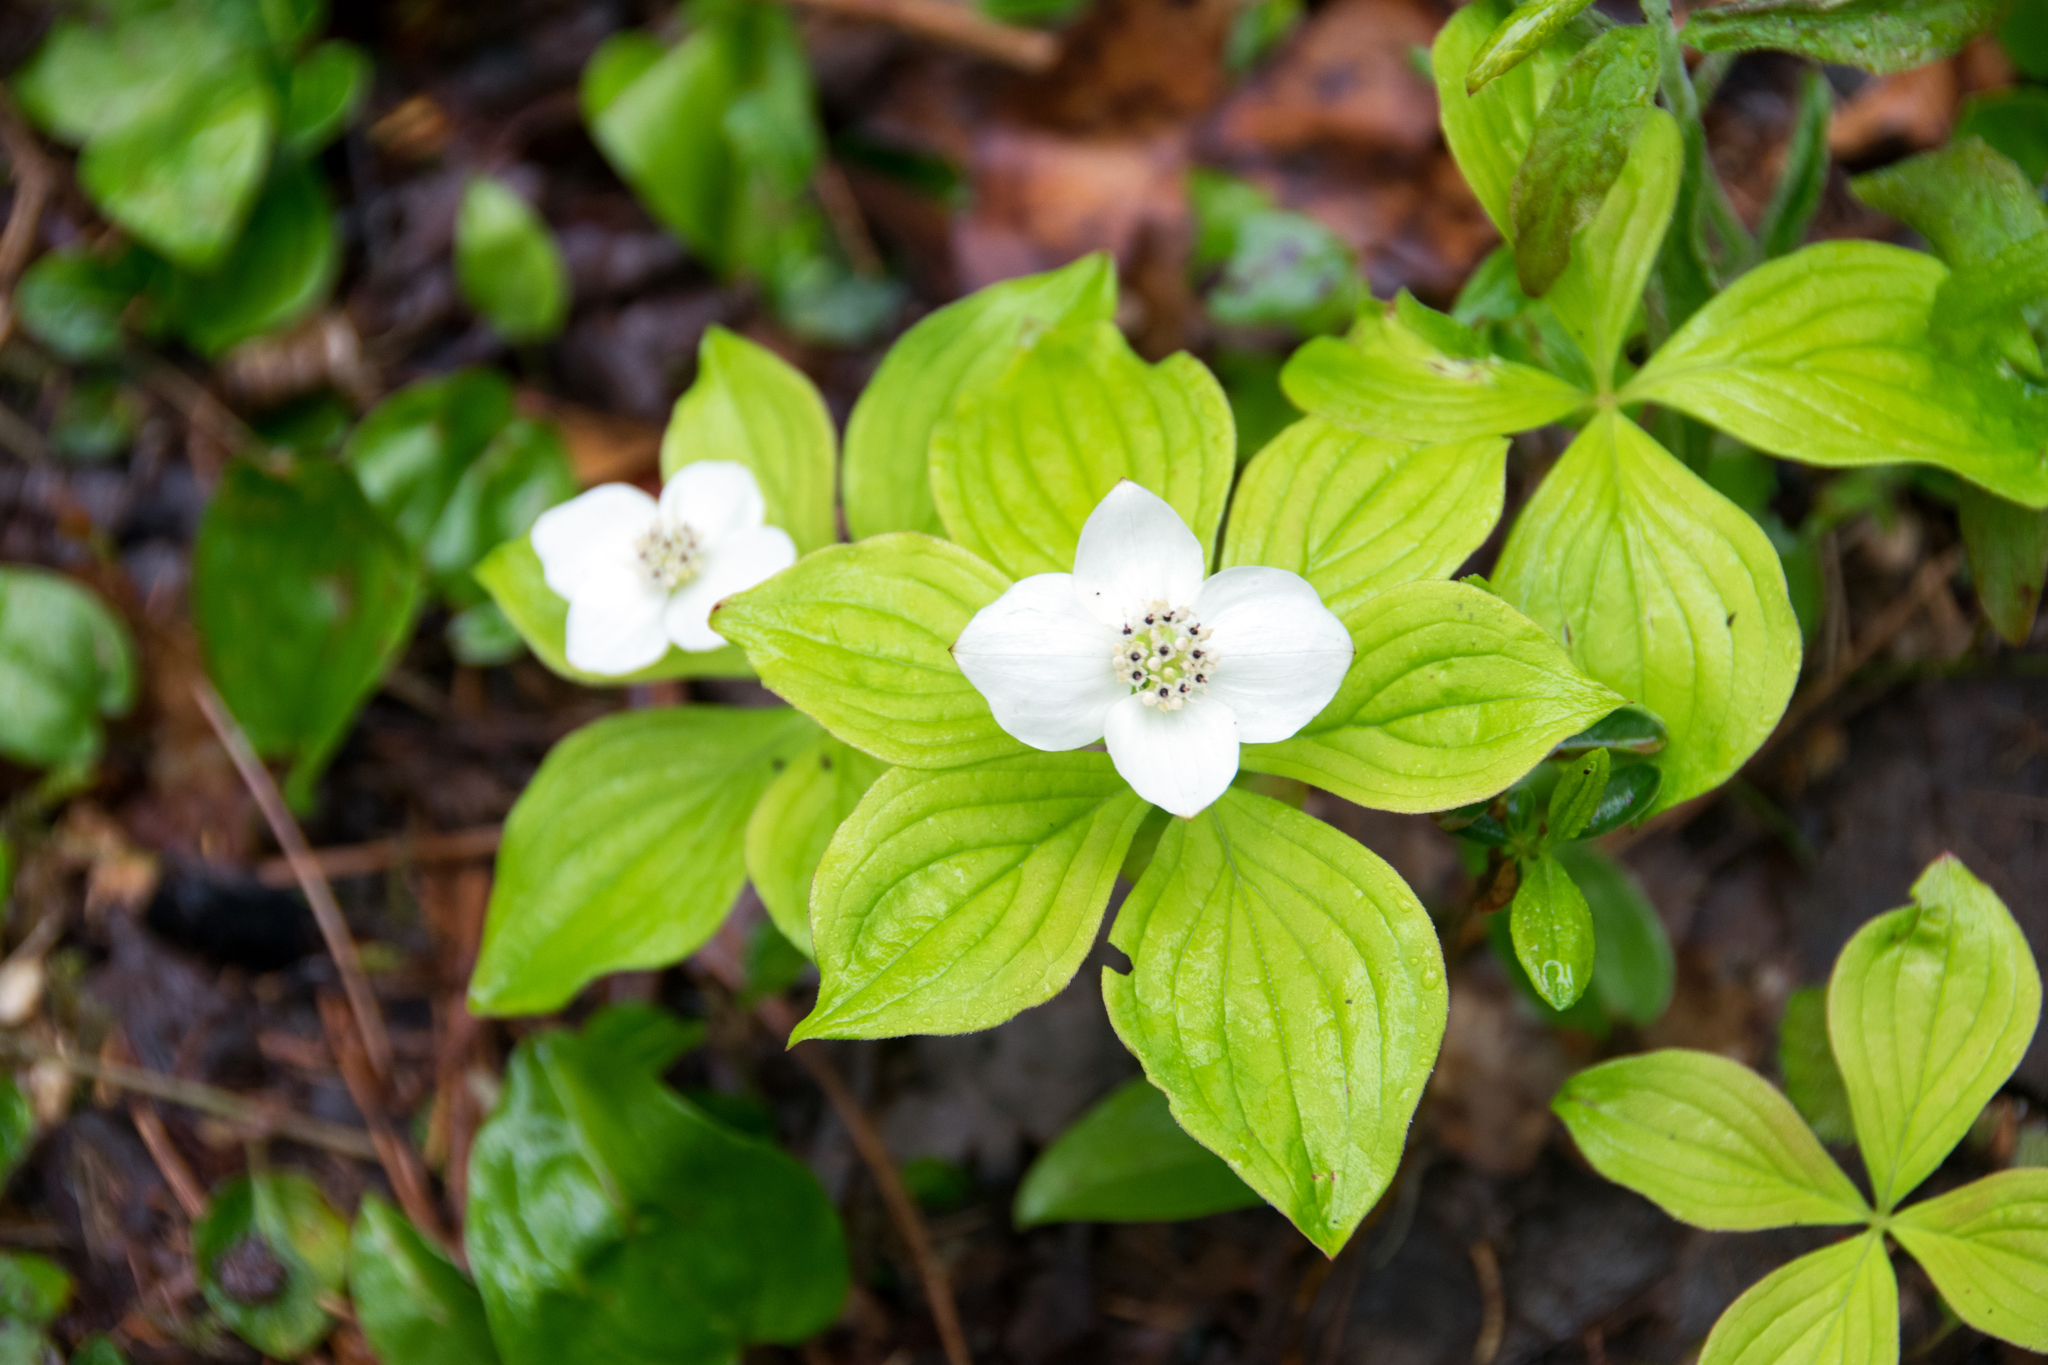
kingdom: Plantae
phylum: Tracheophyta
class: Magnoliopsida
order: Cornales
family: Cornaceae
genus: Cornus
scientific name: Cornus canadensis
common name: Creeping dogwood
